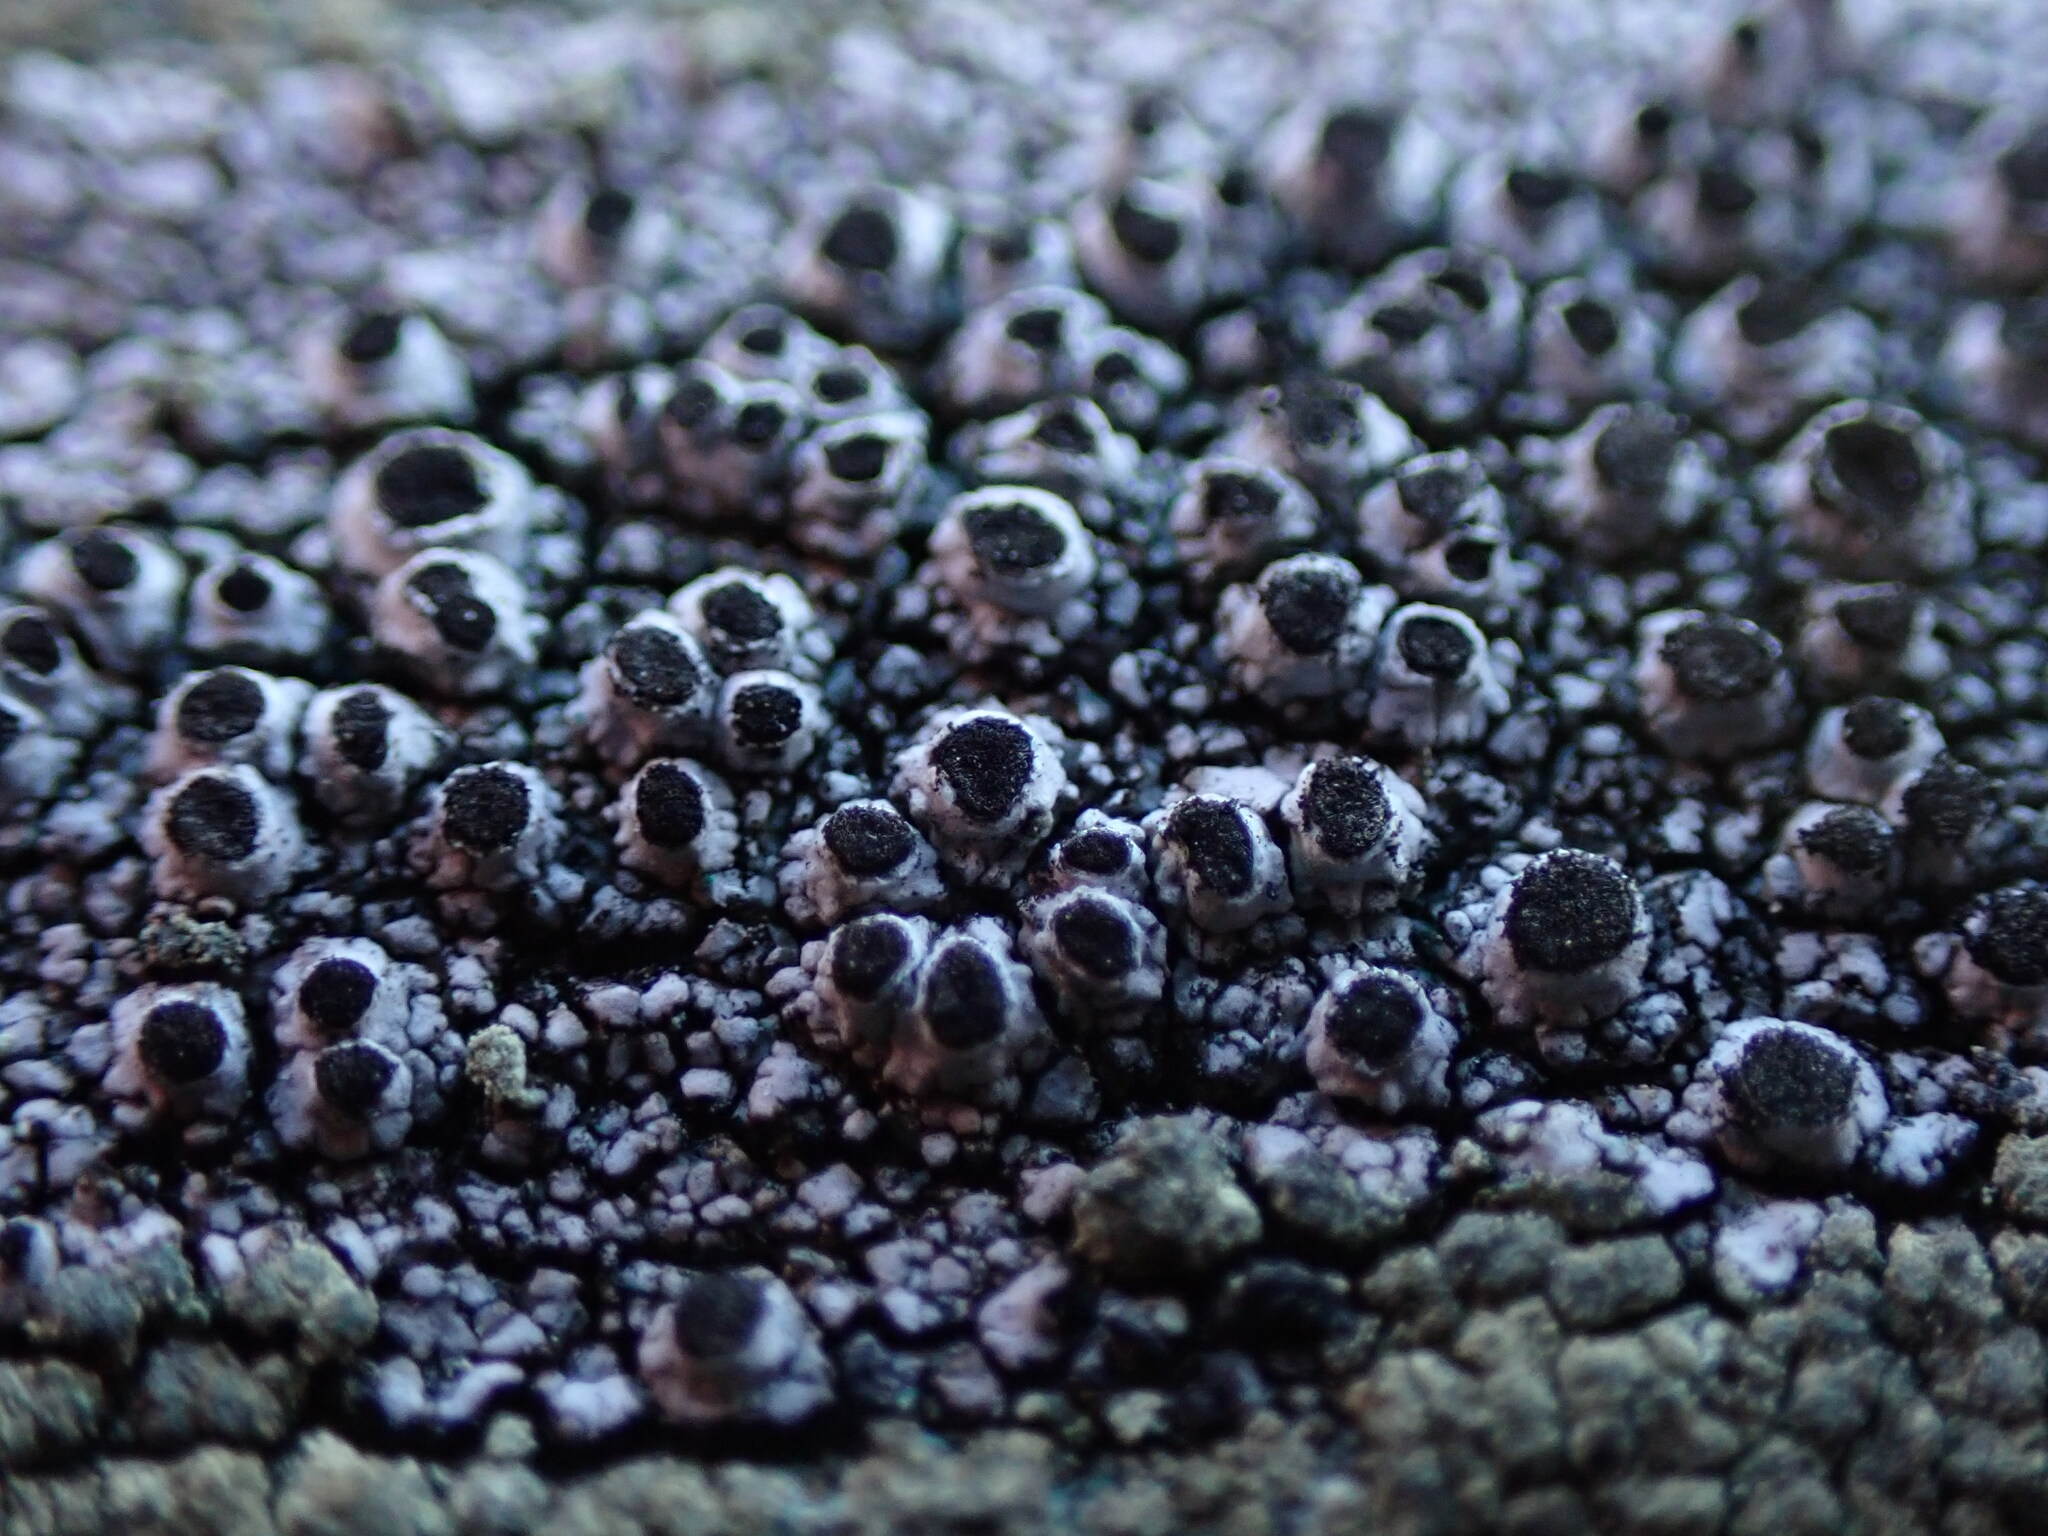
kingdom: Fungi
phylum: Ascomycota
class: Lecanoromycetes
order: Caliciales
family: Caliciaceae
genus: Pseudothelomma
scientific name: Pseudothelomma occidentale
